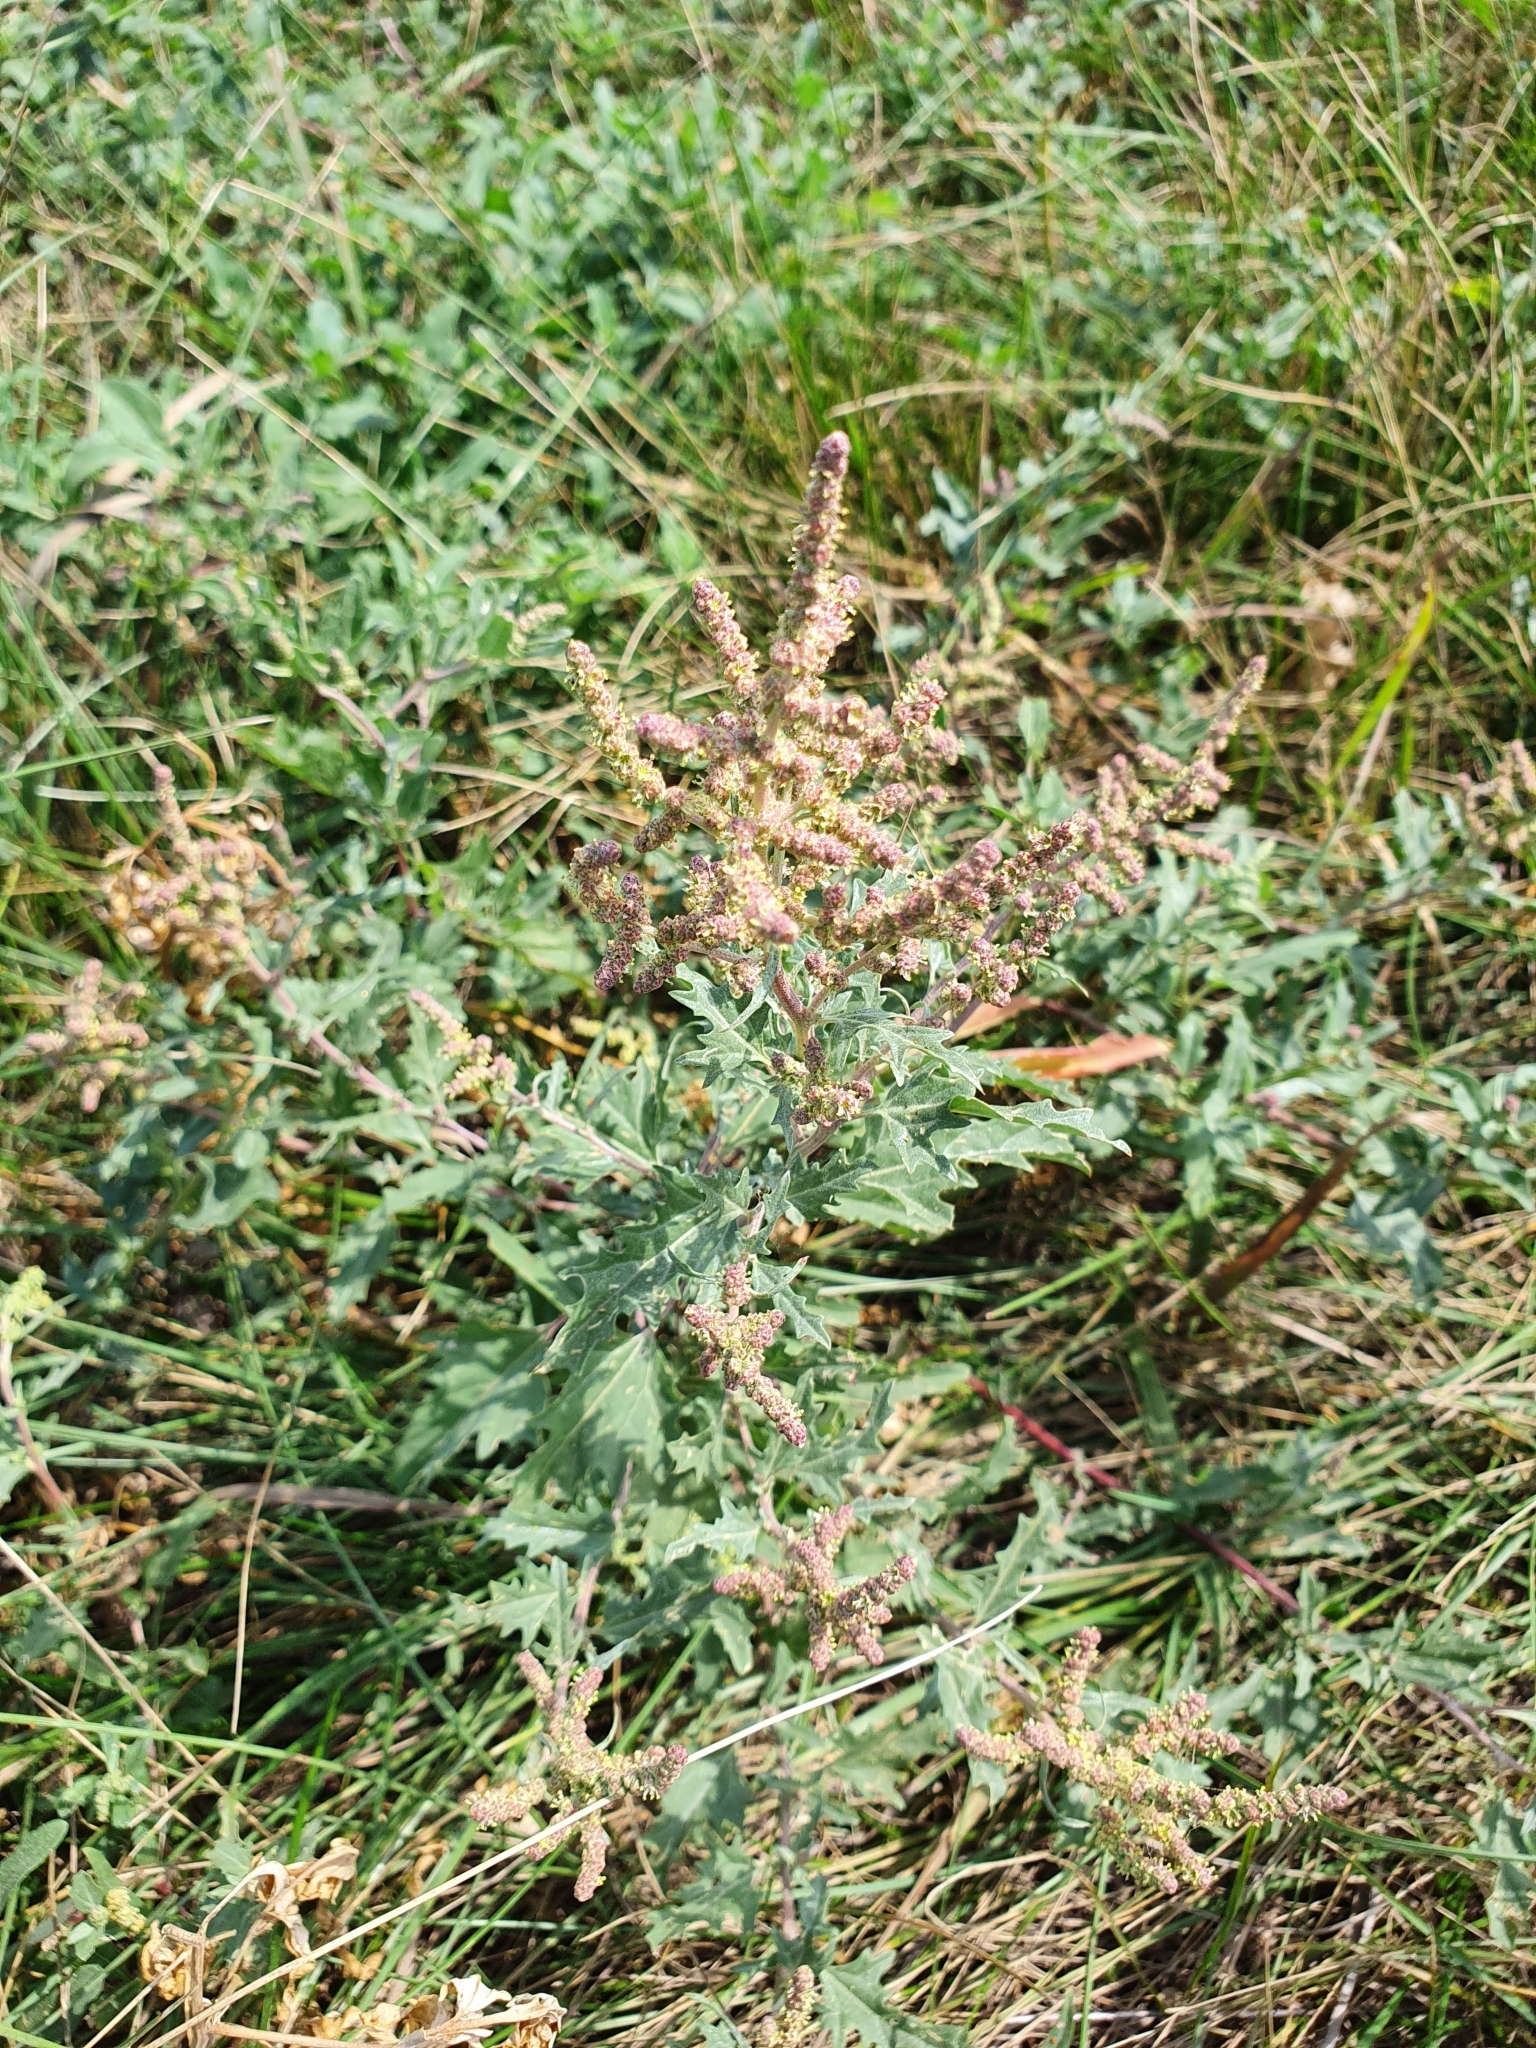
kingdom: Plantae
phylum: Tracheophyta
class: Magnoliopsida
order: Caryophyllales
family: Amaranthaceae
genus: Atriplex
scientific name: Atriplex tatarica
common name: Tatarian orache
